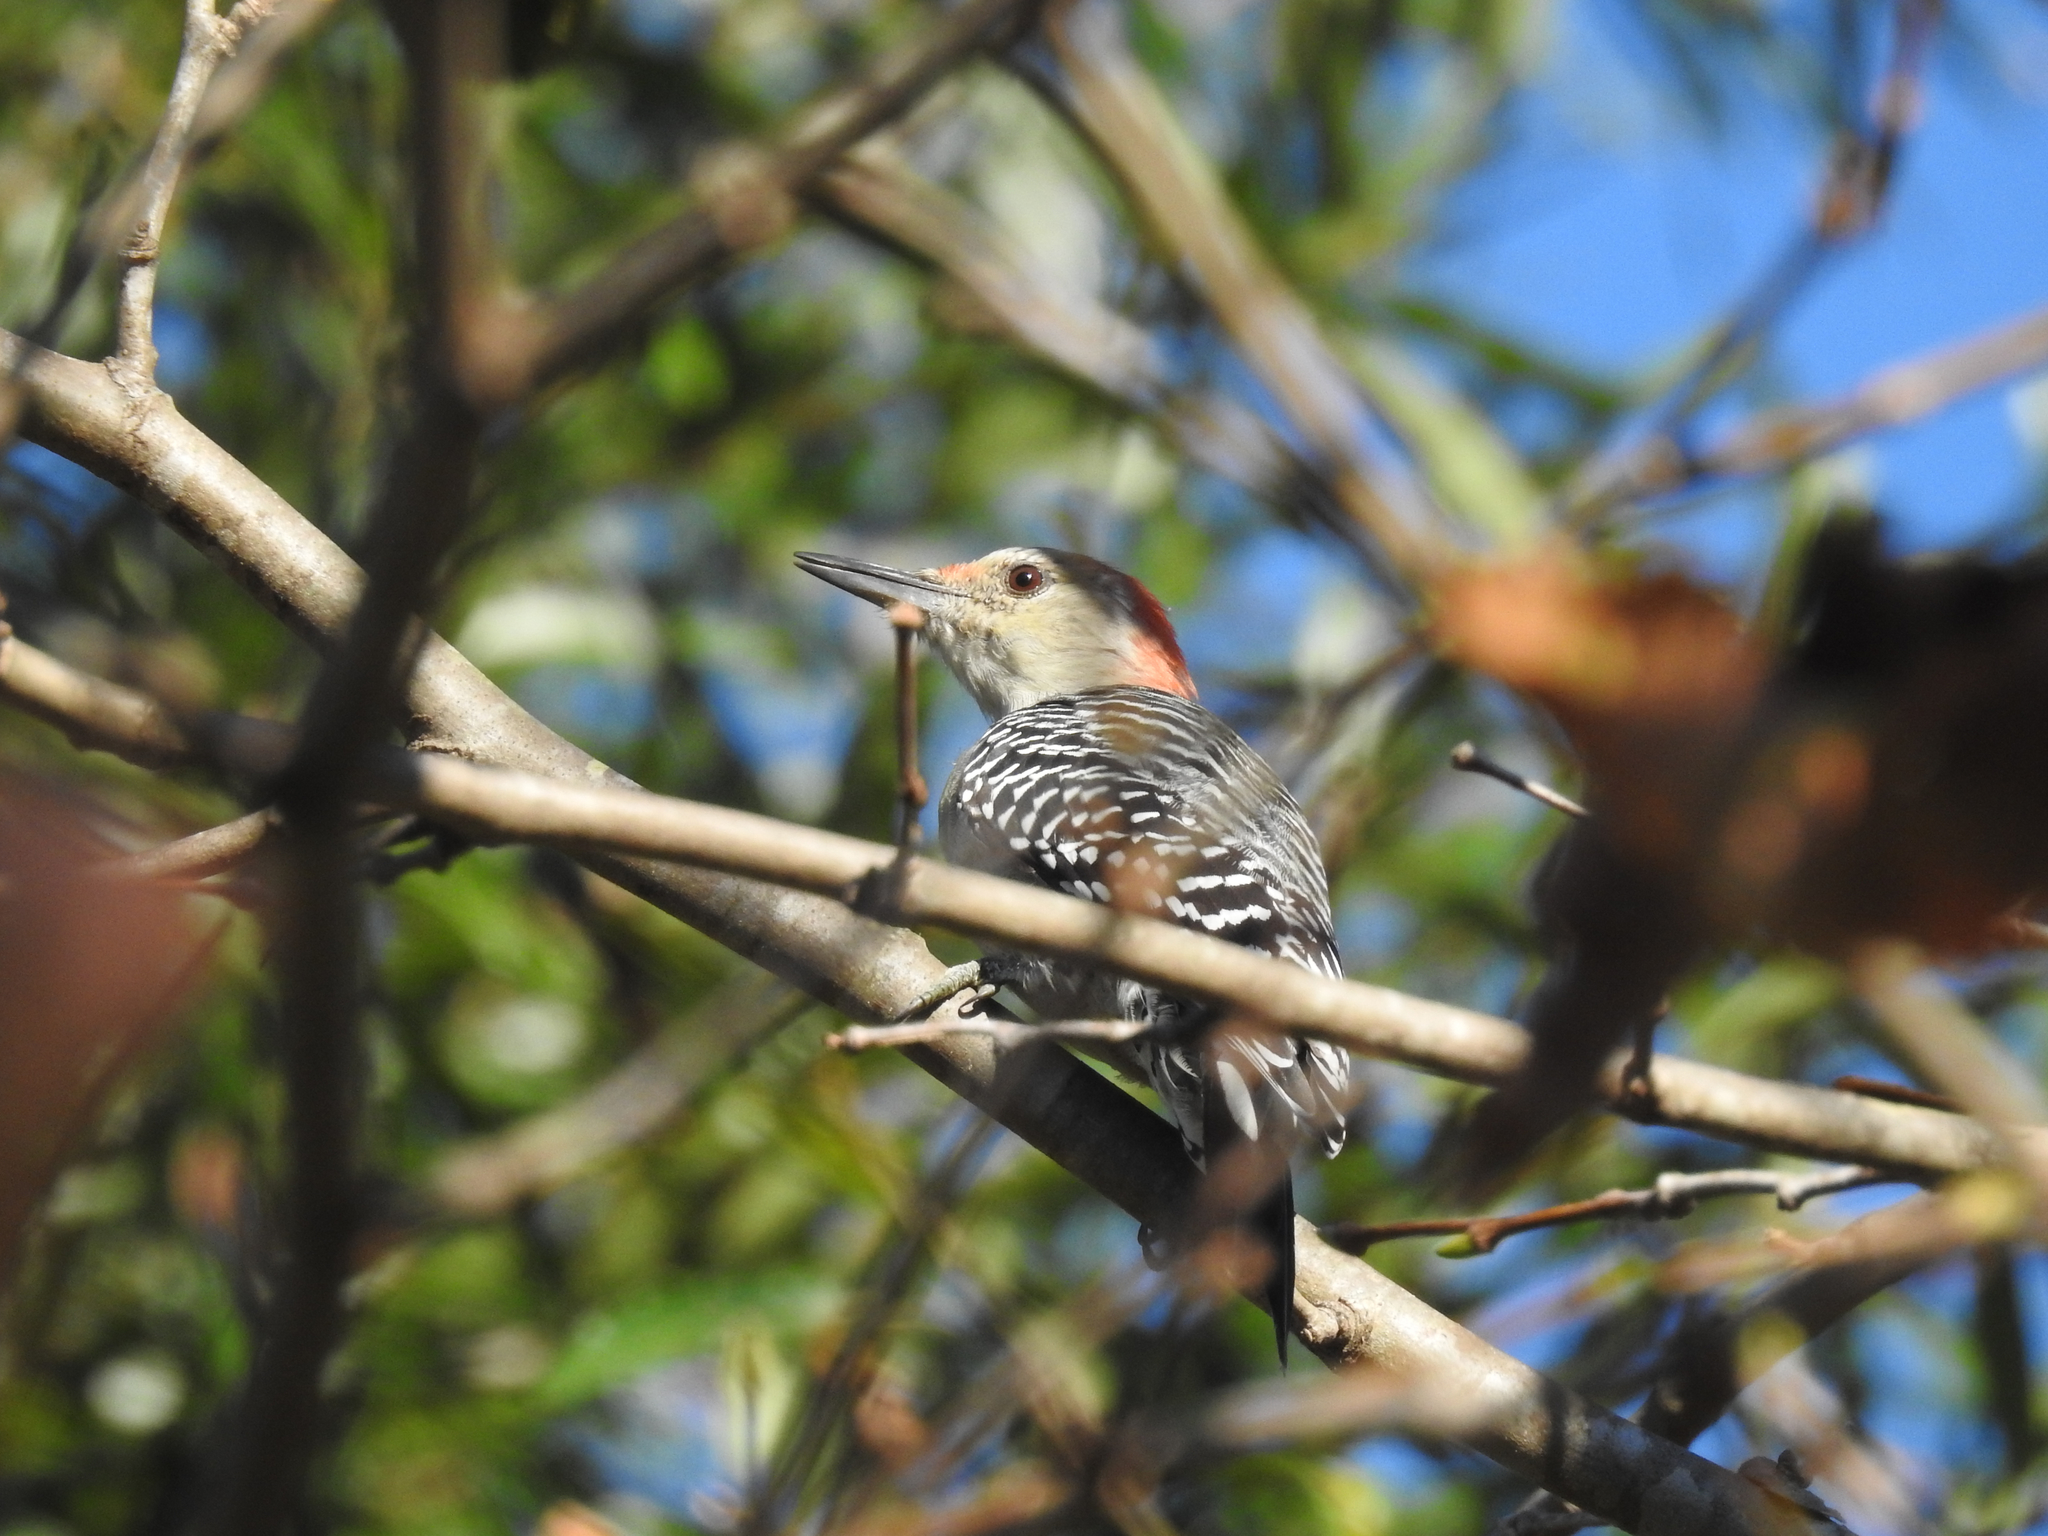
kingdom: Animalia
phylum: Chordata
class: Aves
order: Piciformes
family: Picidae
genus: Melanerpes
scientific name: Melanerpes carolinus
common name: Red-bellied woodpecker
